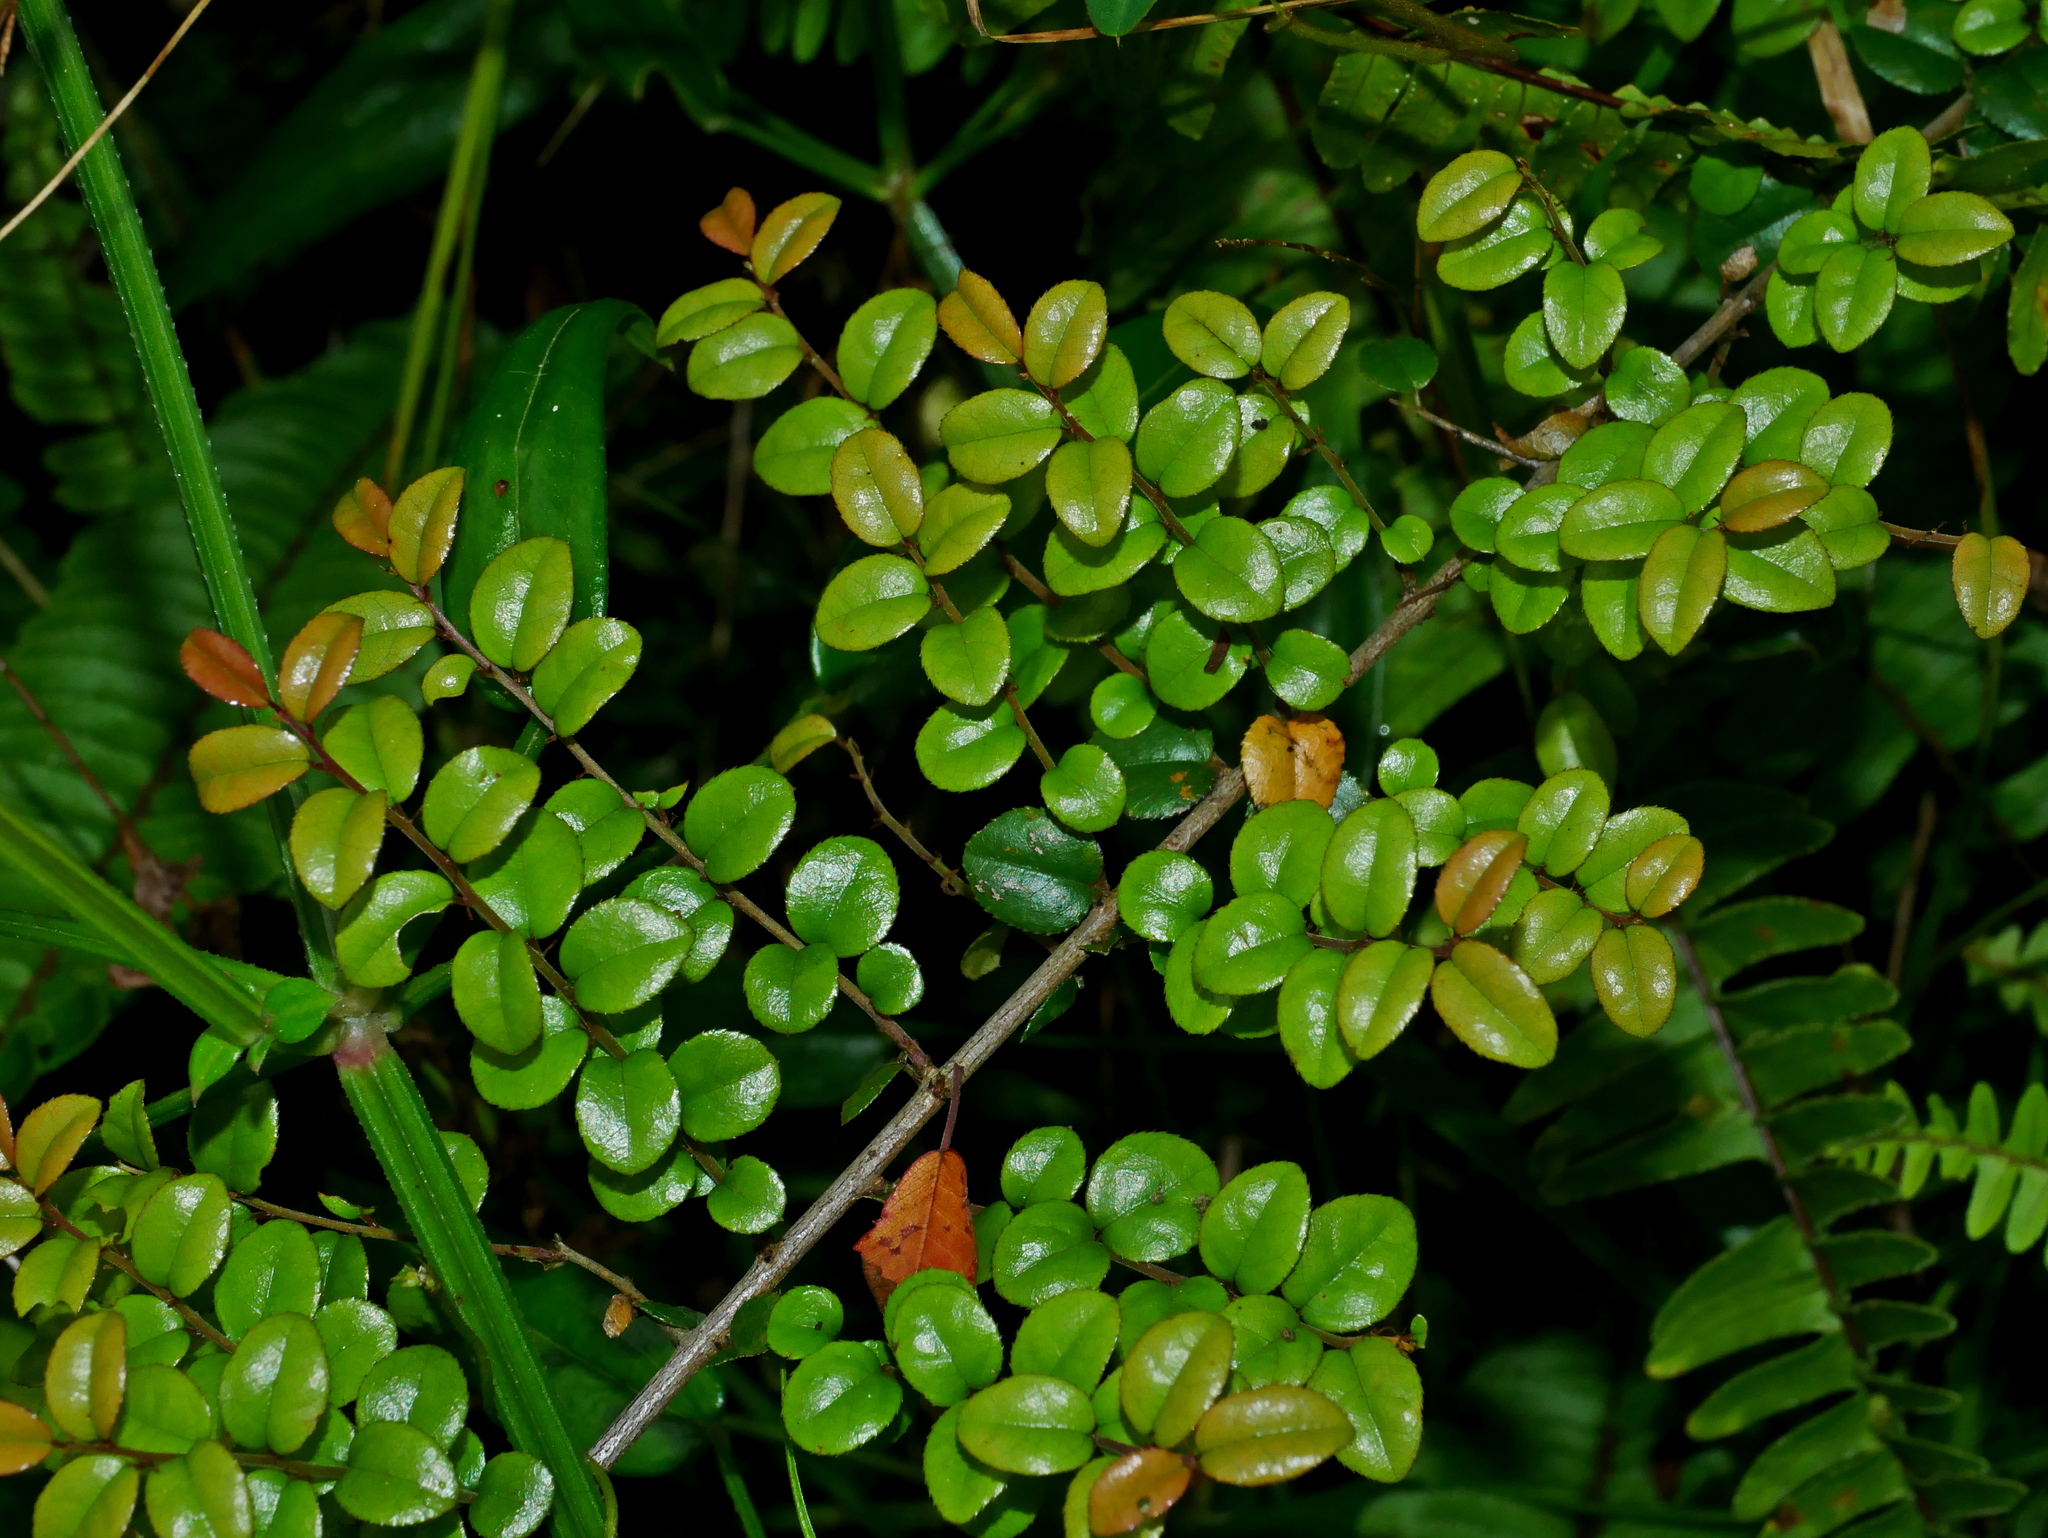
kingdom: Plantae
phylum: Tracheophyta
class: Magnoliopsida
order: Rosales
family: Rhamnaceae
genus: Sageretia
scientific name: Sageretia thea
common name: Pauper's-tea
